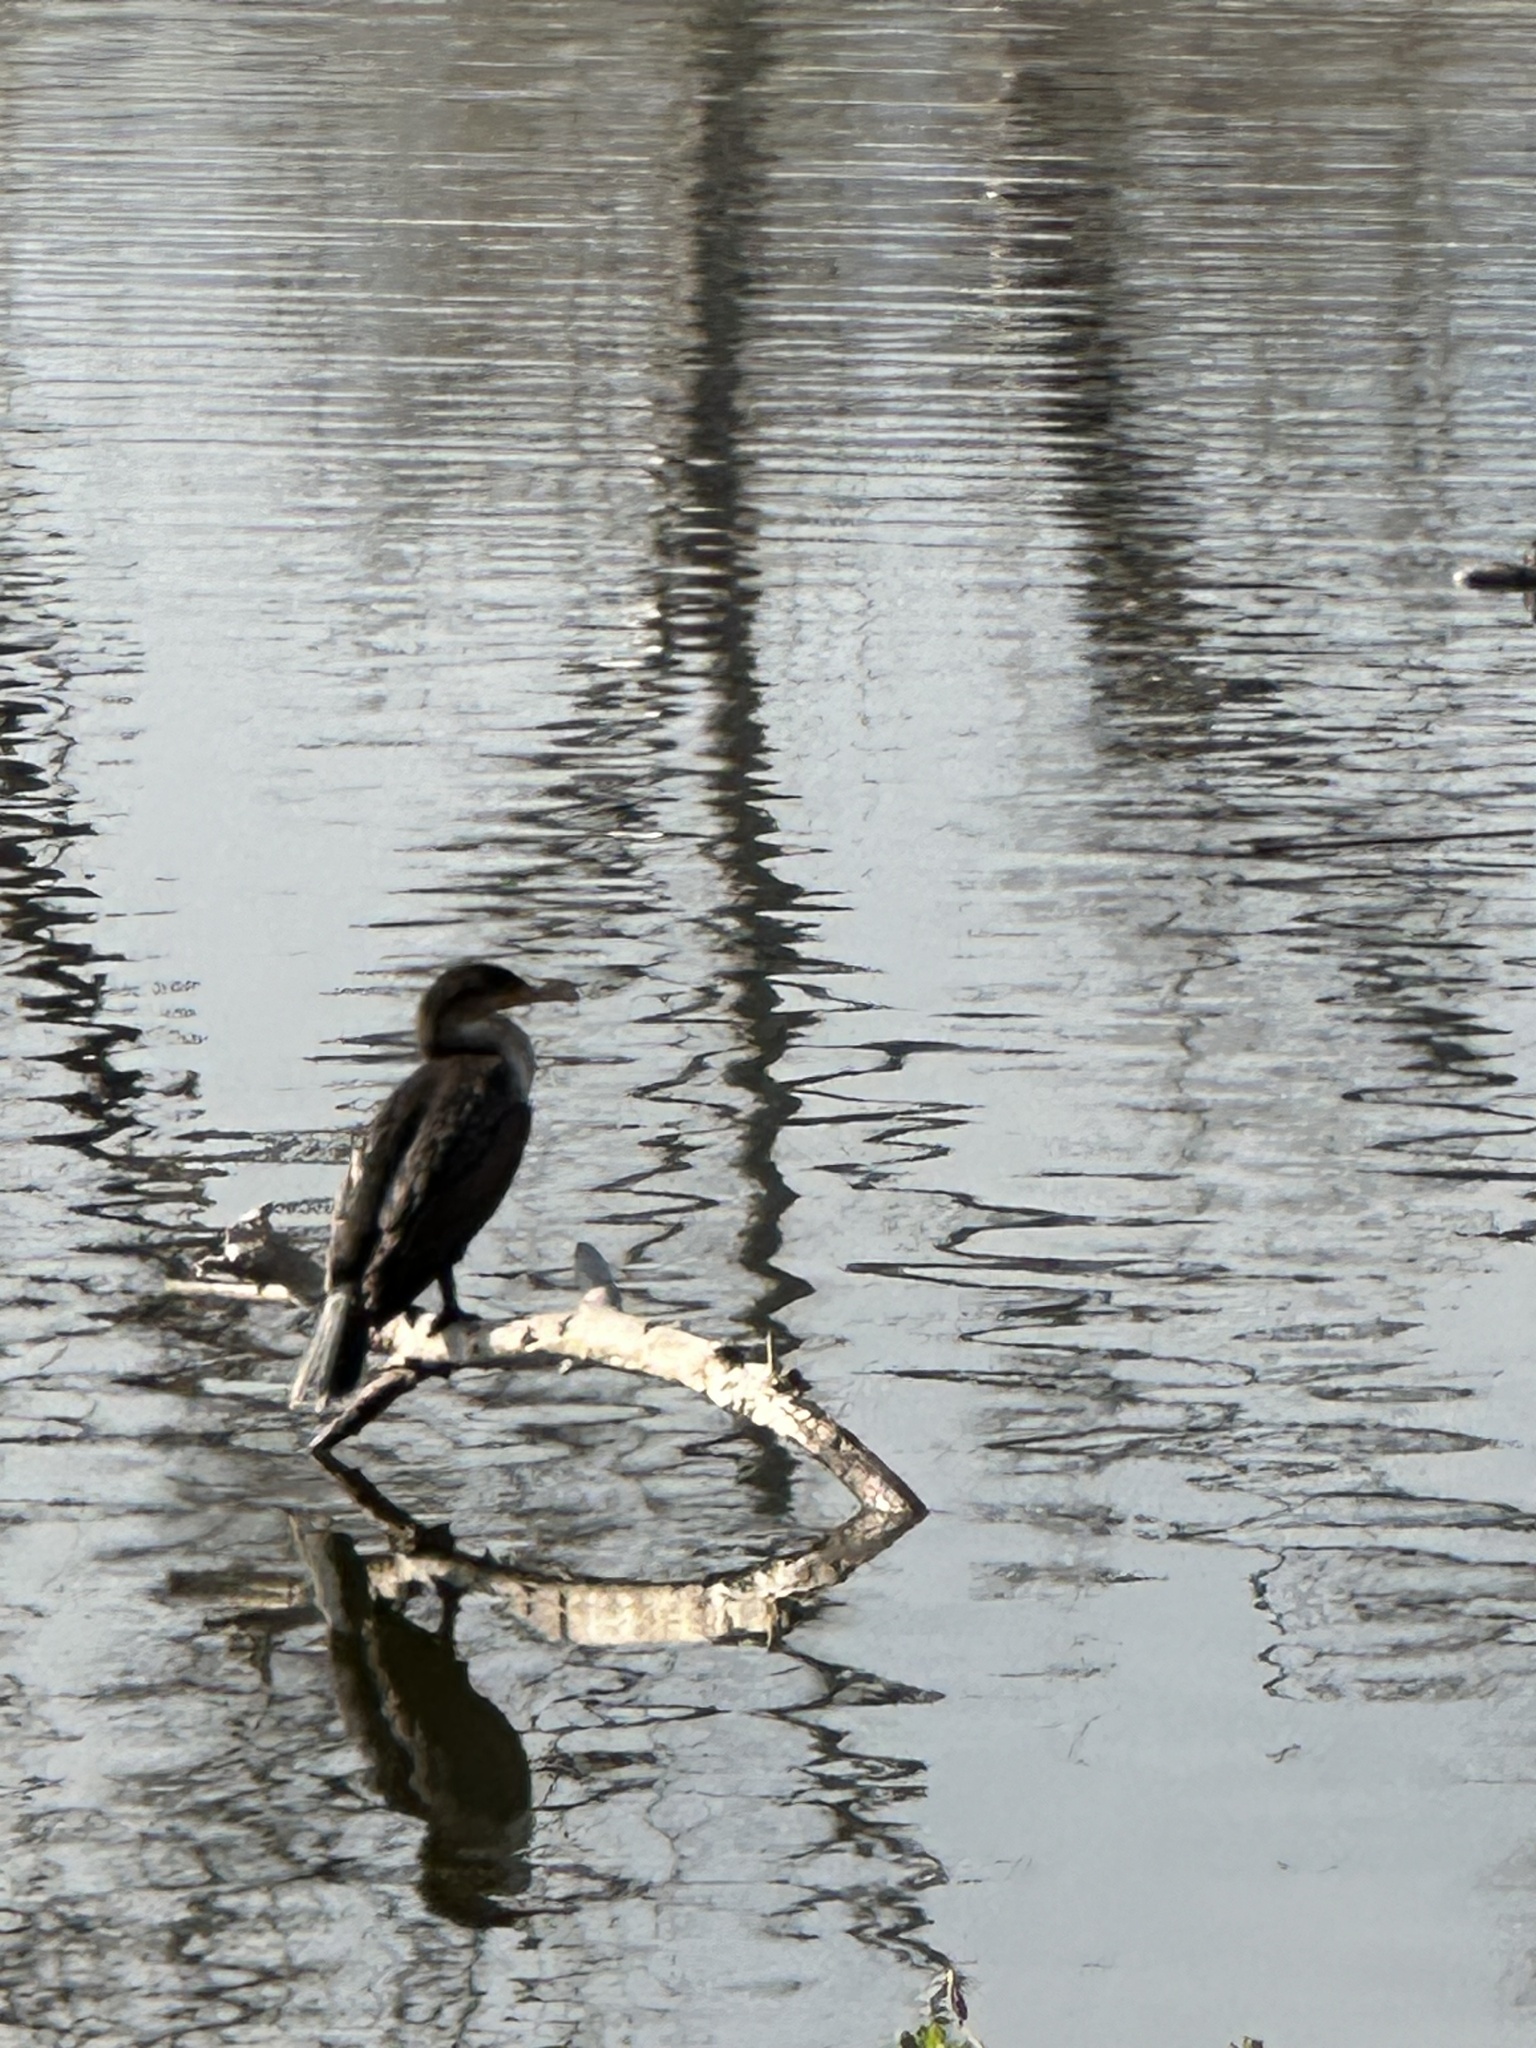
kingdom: Animalia
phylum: Chordata
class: Aves
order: Suliformes
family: Phalacrocoracidae
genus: Phalacrocorax
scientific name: Phalacrocorax auritus
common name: Double-crested cormorant
